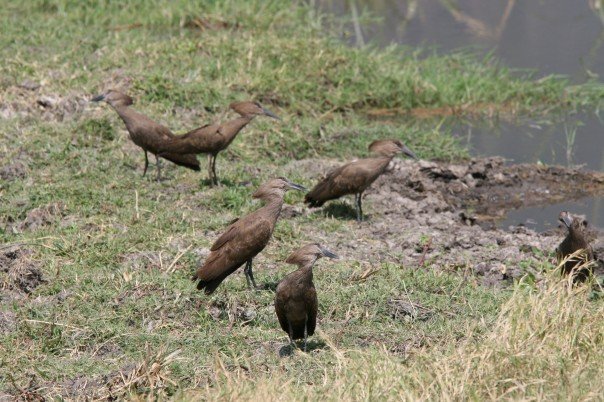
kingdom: Animalia
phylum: Chordata
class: Aves
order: Pelecaniformes
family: Scopidae
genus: Scopus
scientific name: Scopus umbretta
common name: Hamerkop
